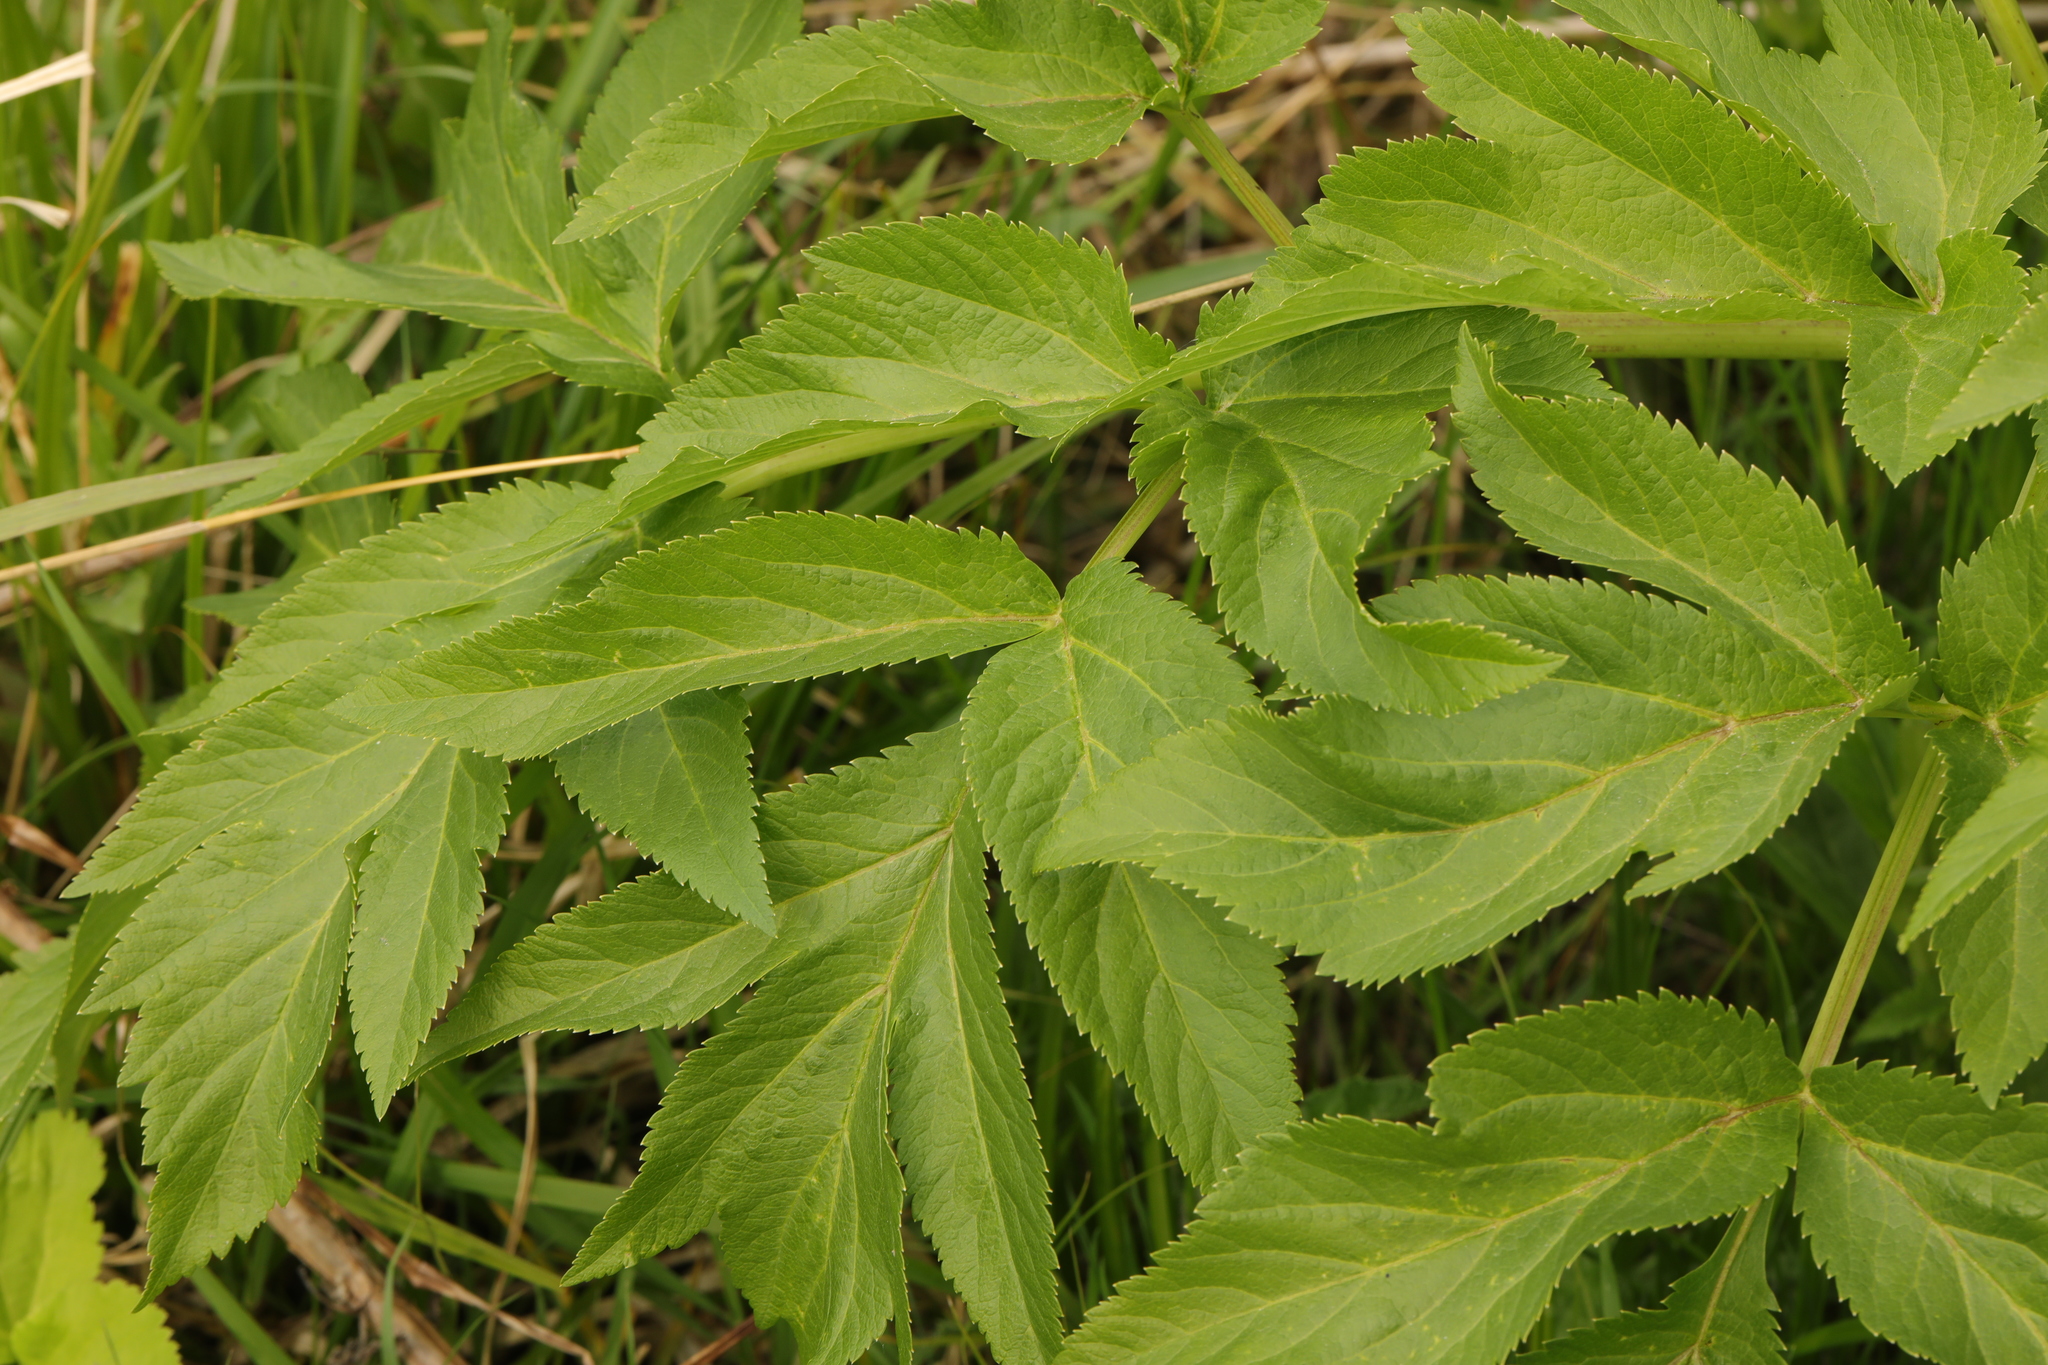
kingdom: Plantae
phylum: Tracheophyta
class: Magnoliopsida
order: Apiales
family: Apiaceae
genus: Angelica
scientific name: Angelica archangelica
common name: Garden angelica
